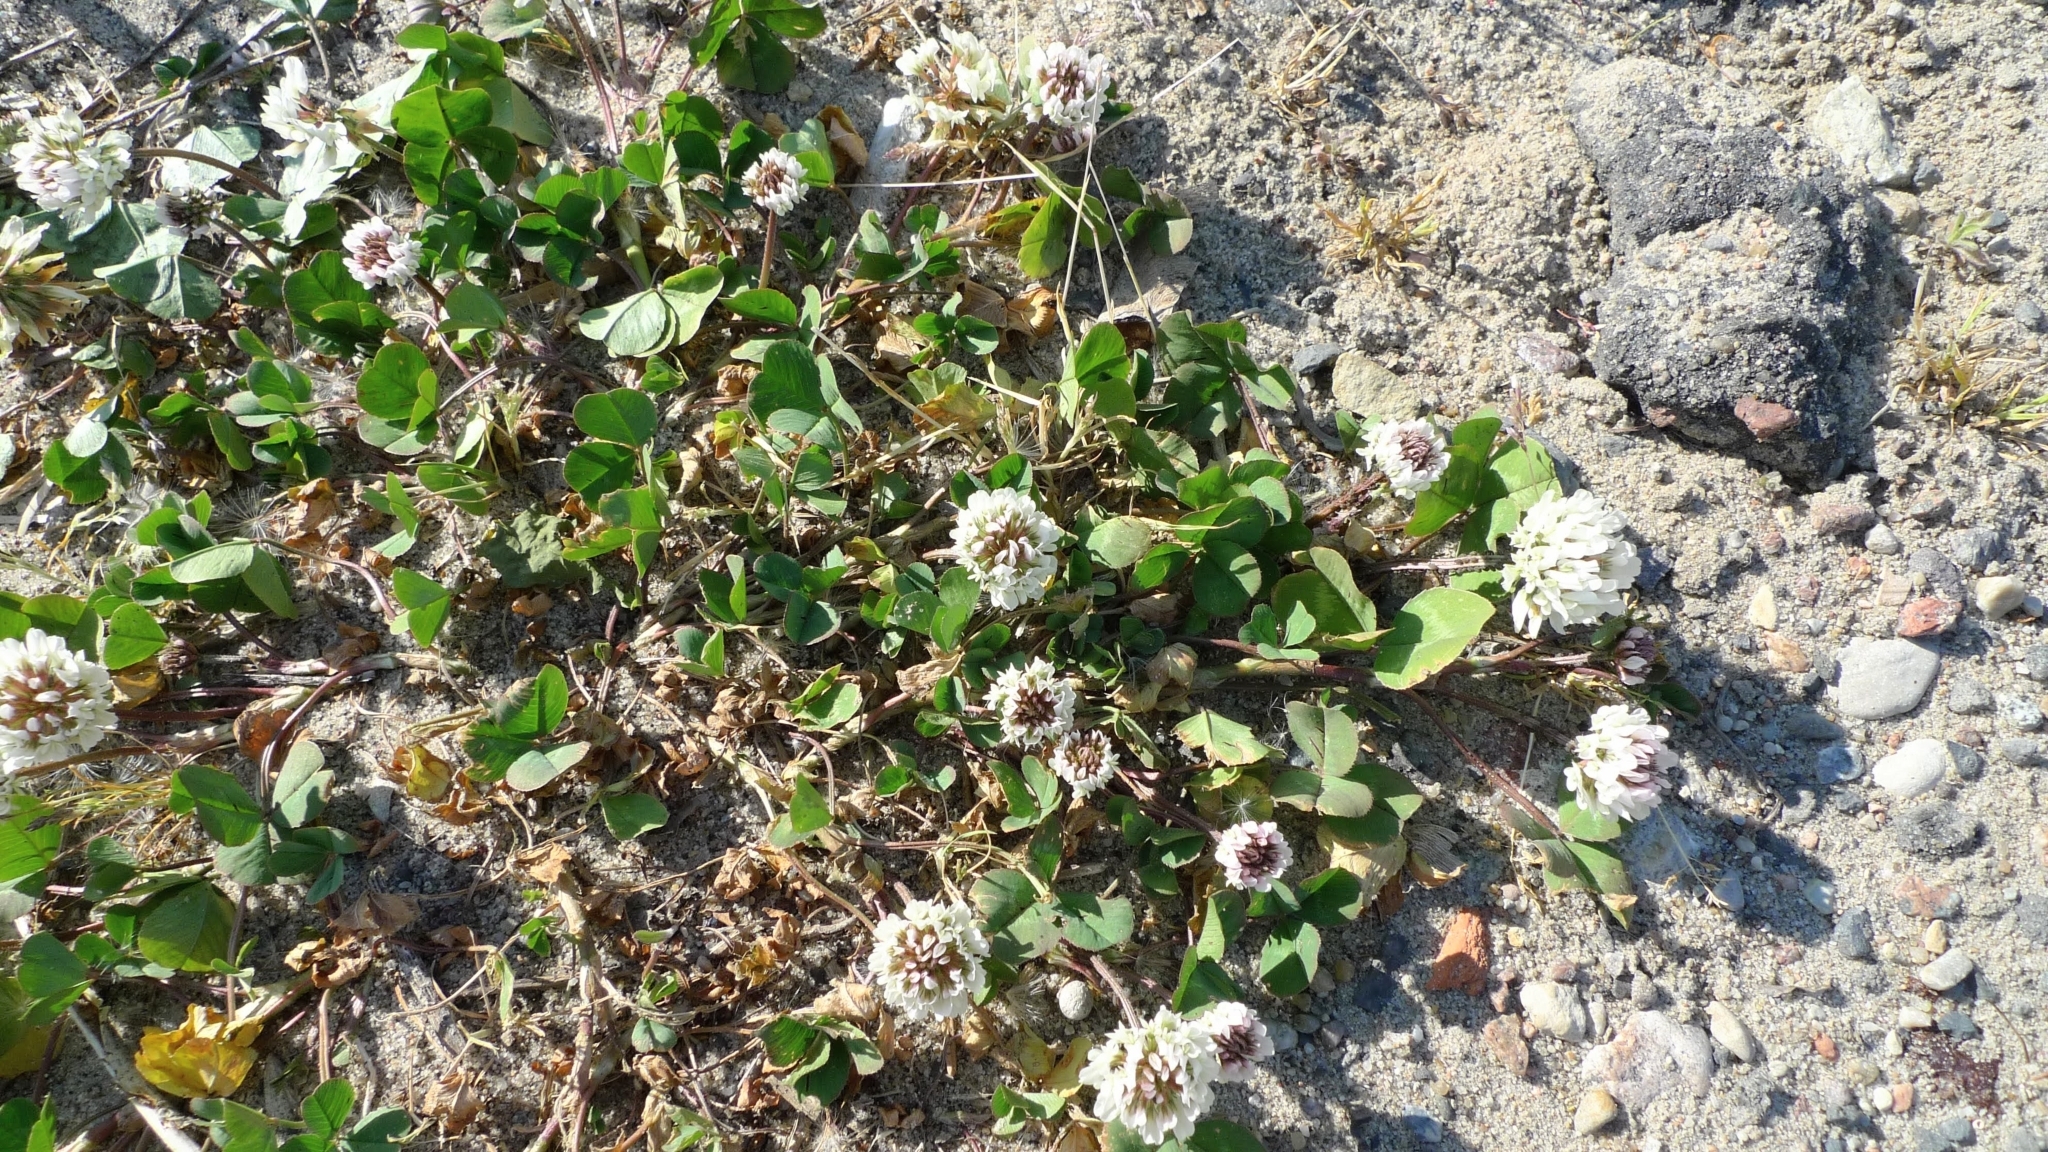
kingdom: Plantae
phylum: Tracheophyta
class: Magnoliopsida
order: Fabales
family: Fabaceae
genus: Trifolium
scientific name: Trifolium repens
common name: White clover
